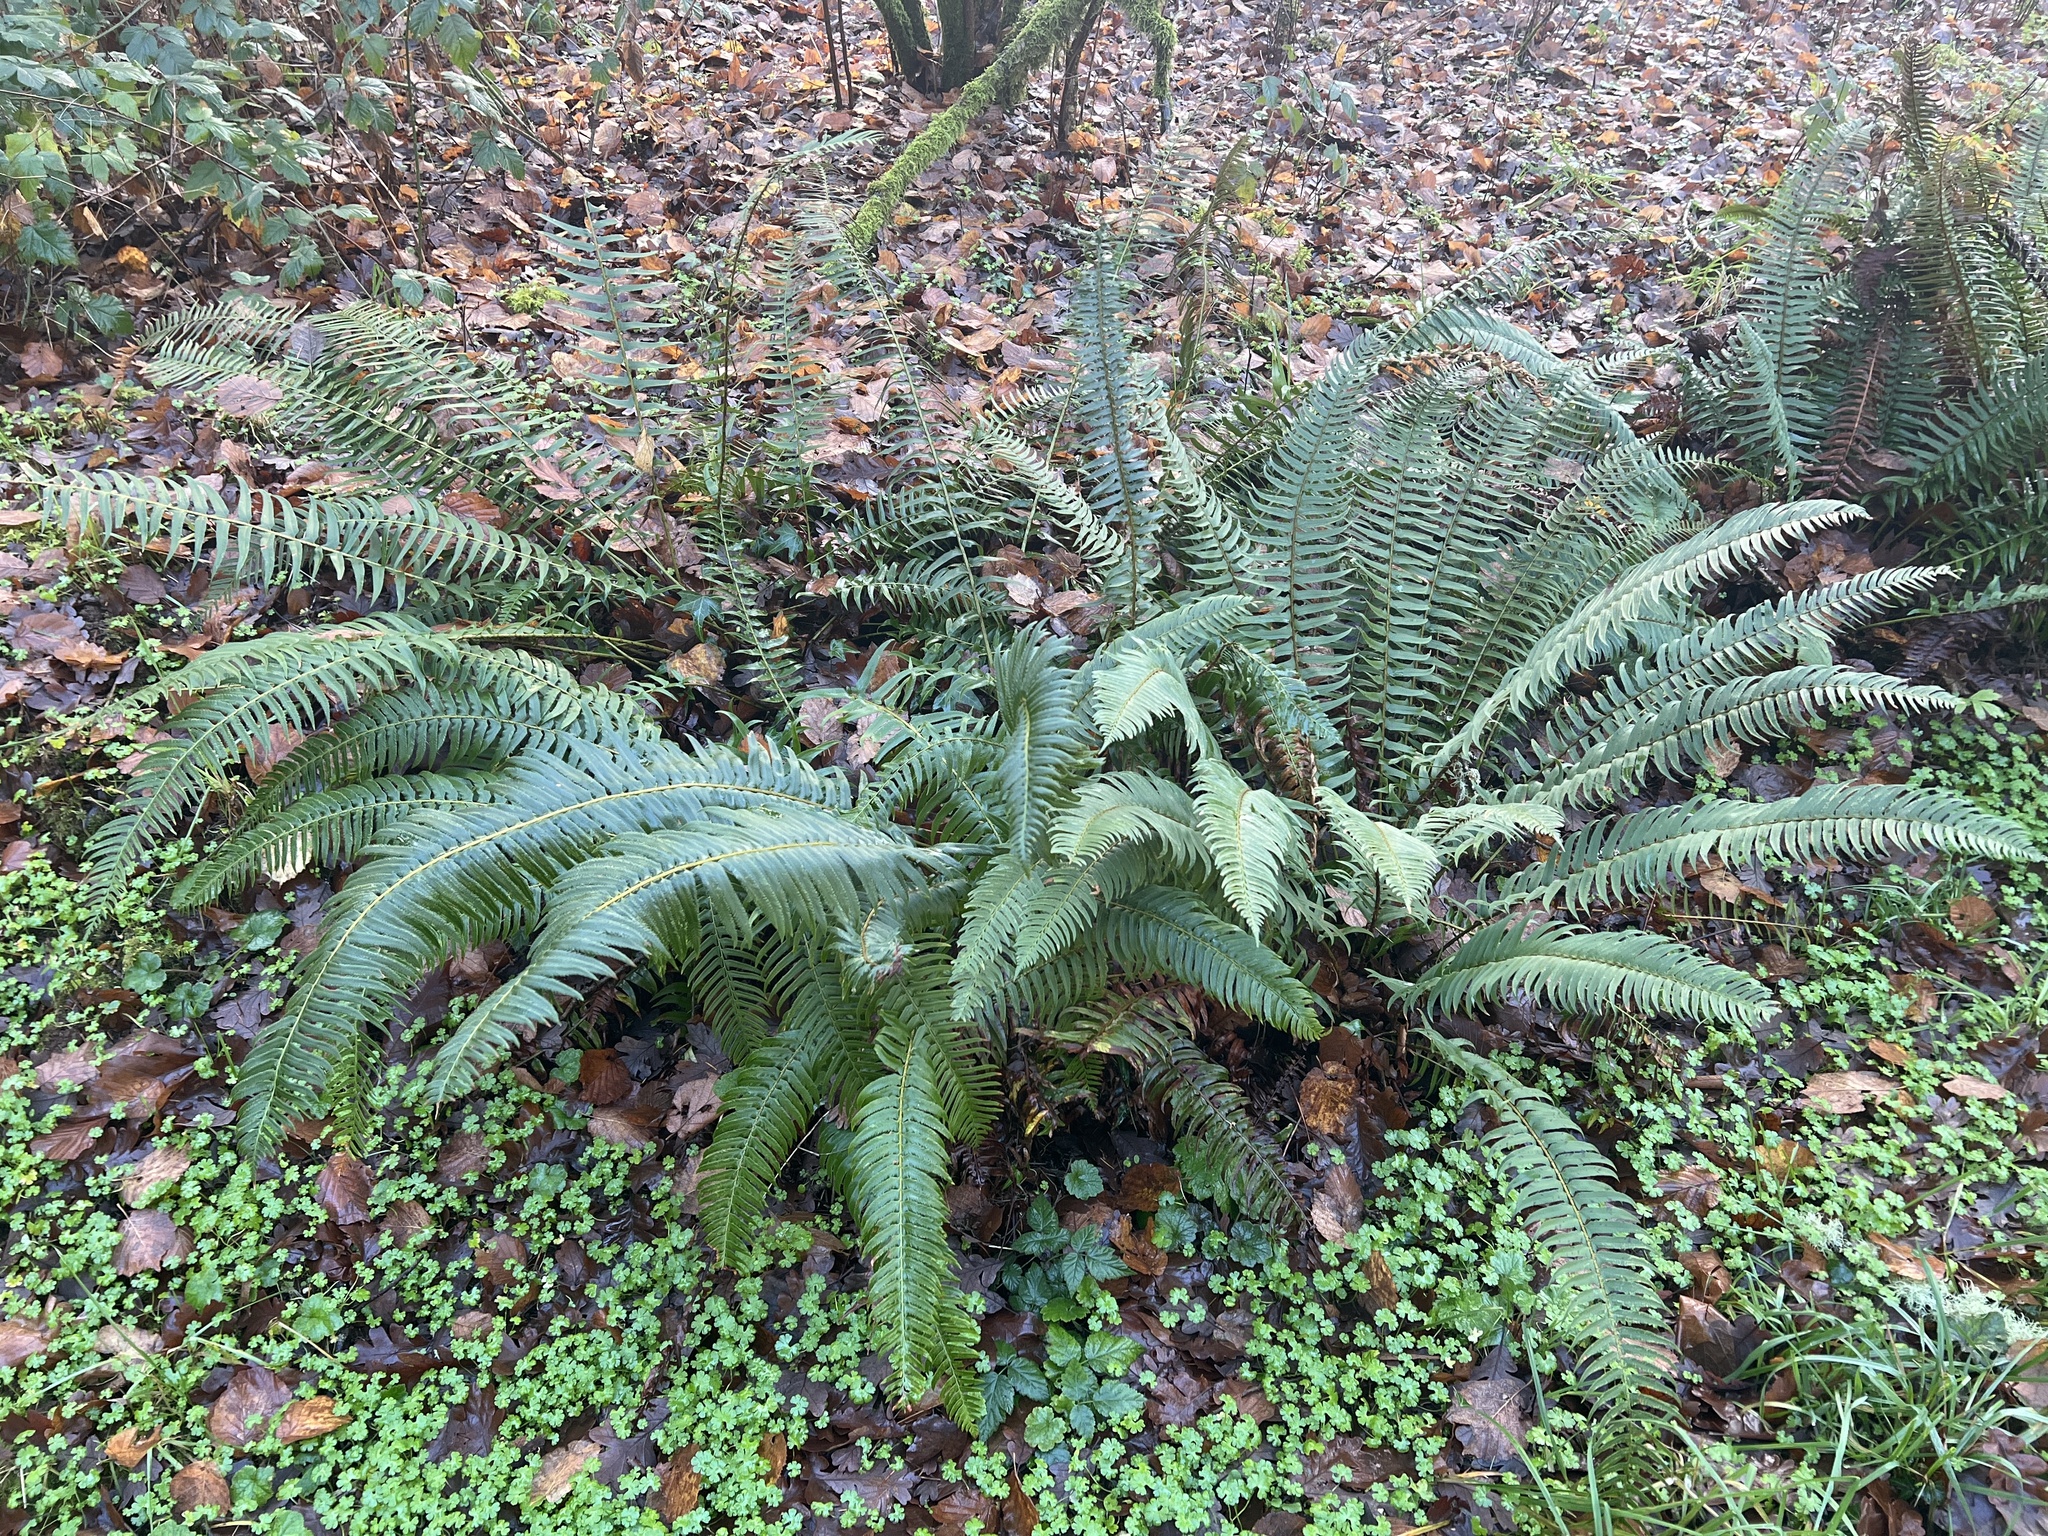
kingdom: Plantae
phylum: Tracheophyta
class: Polypodiopsida
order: Polypodiales
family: Dryopteridaceae
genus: Polystichum
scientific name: Polystichum munitum
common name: Western sword-fern
